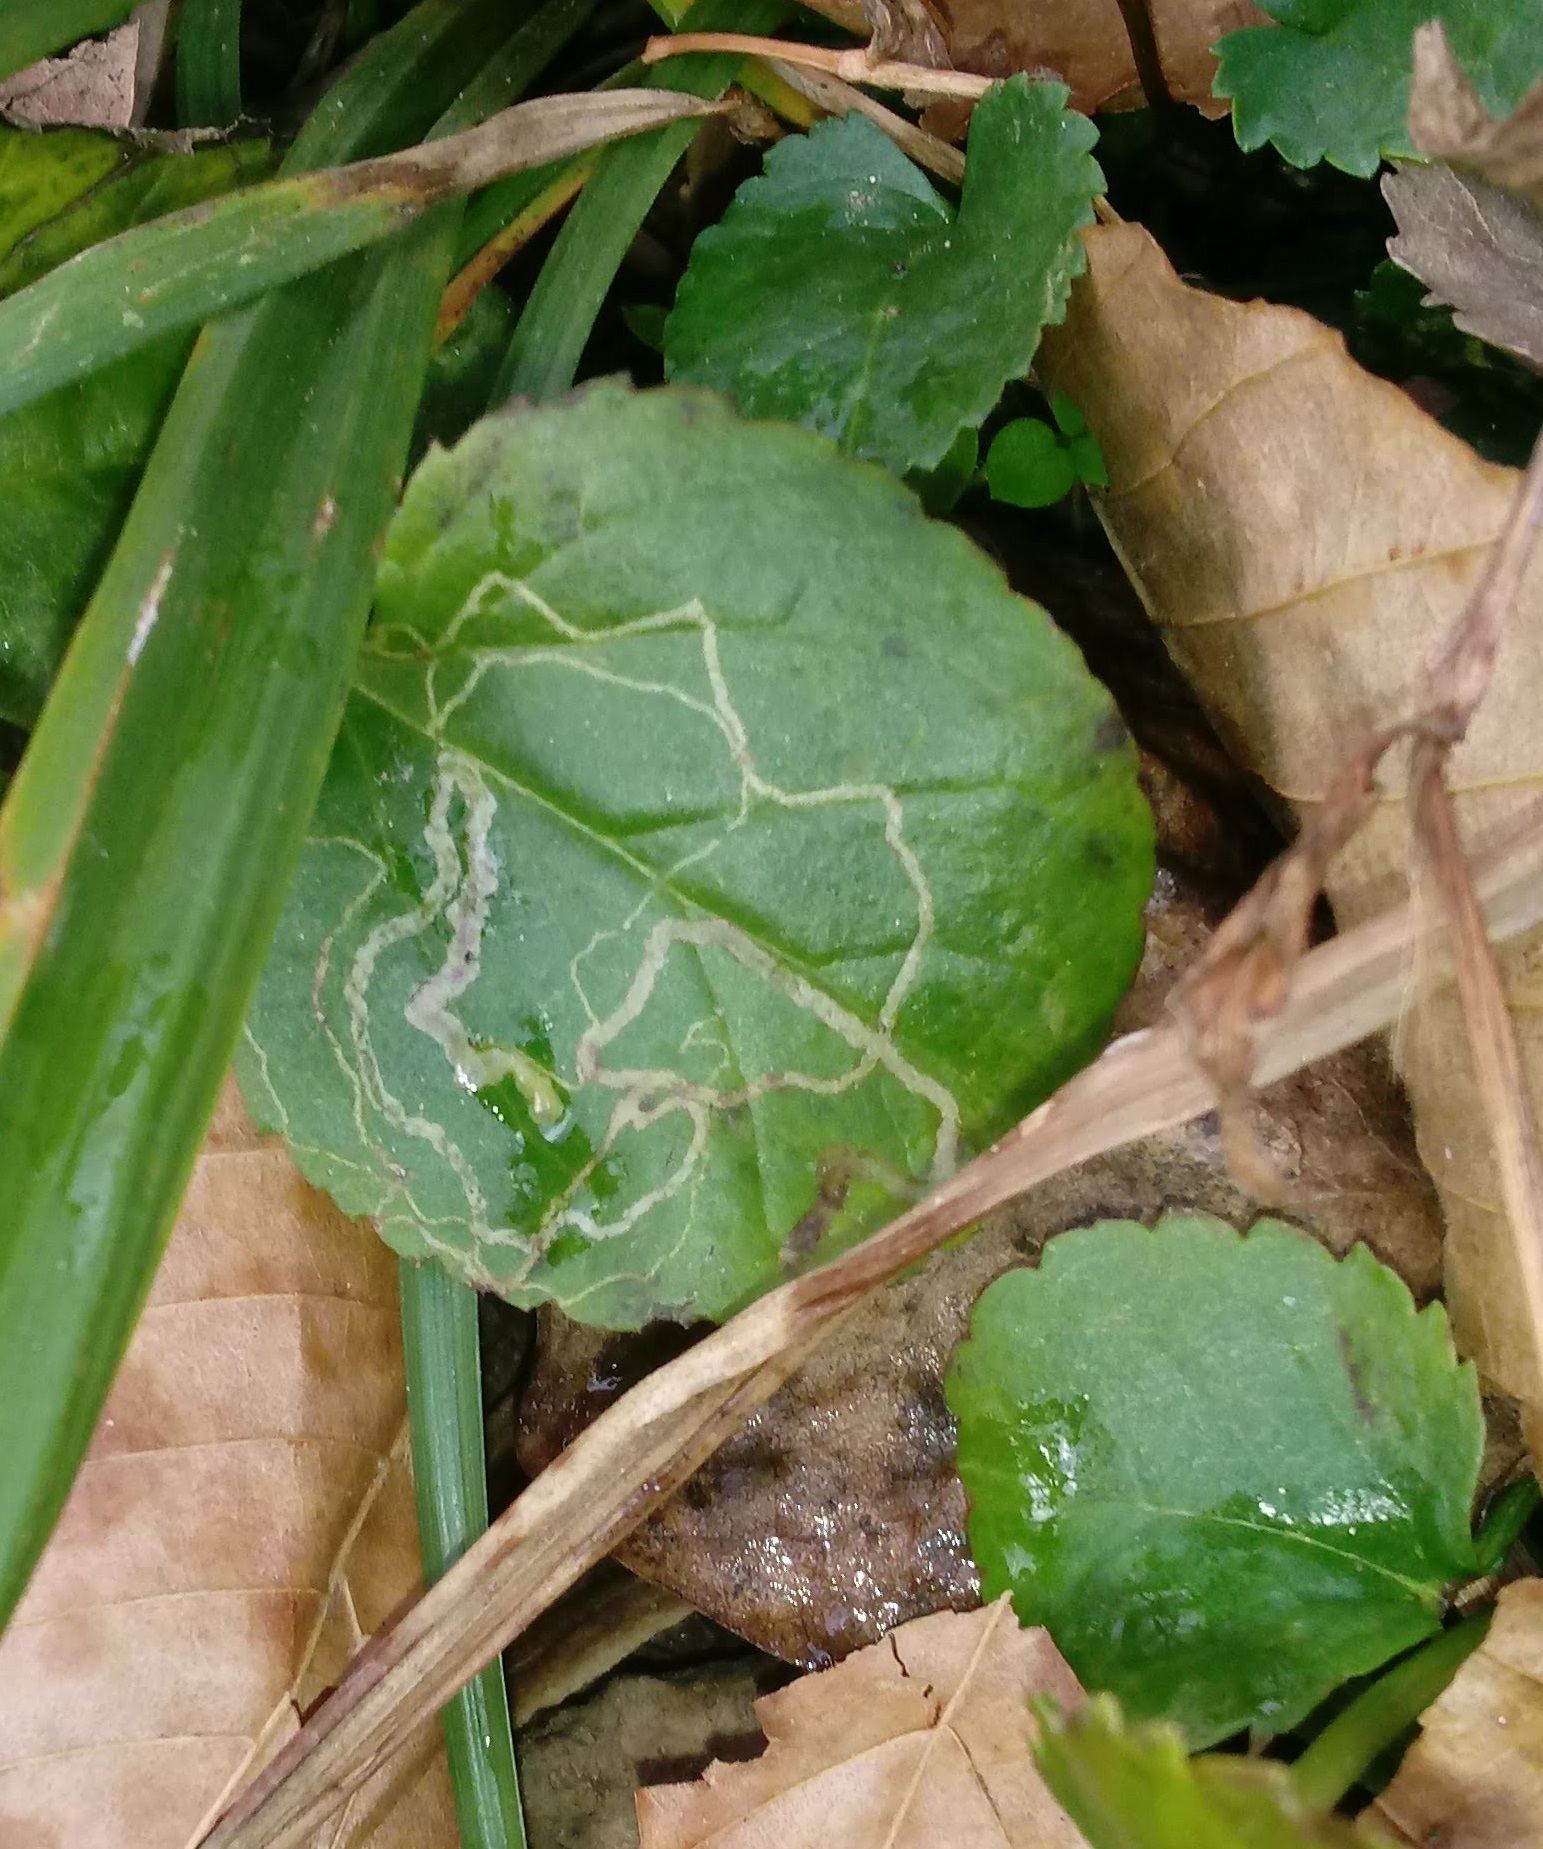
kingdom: Animalia
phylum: Arthropoda
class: Insecta
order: Lepidoptera
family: Gracillariidae
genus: Phyllocnistis
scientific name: Phyllocnistis insignis
